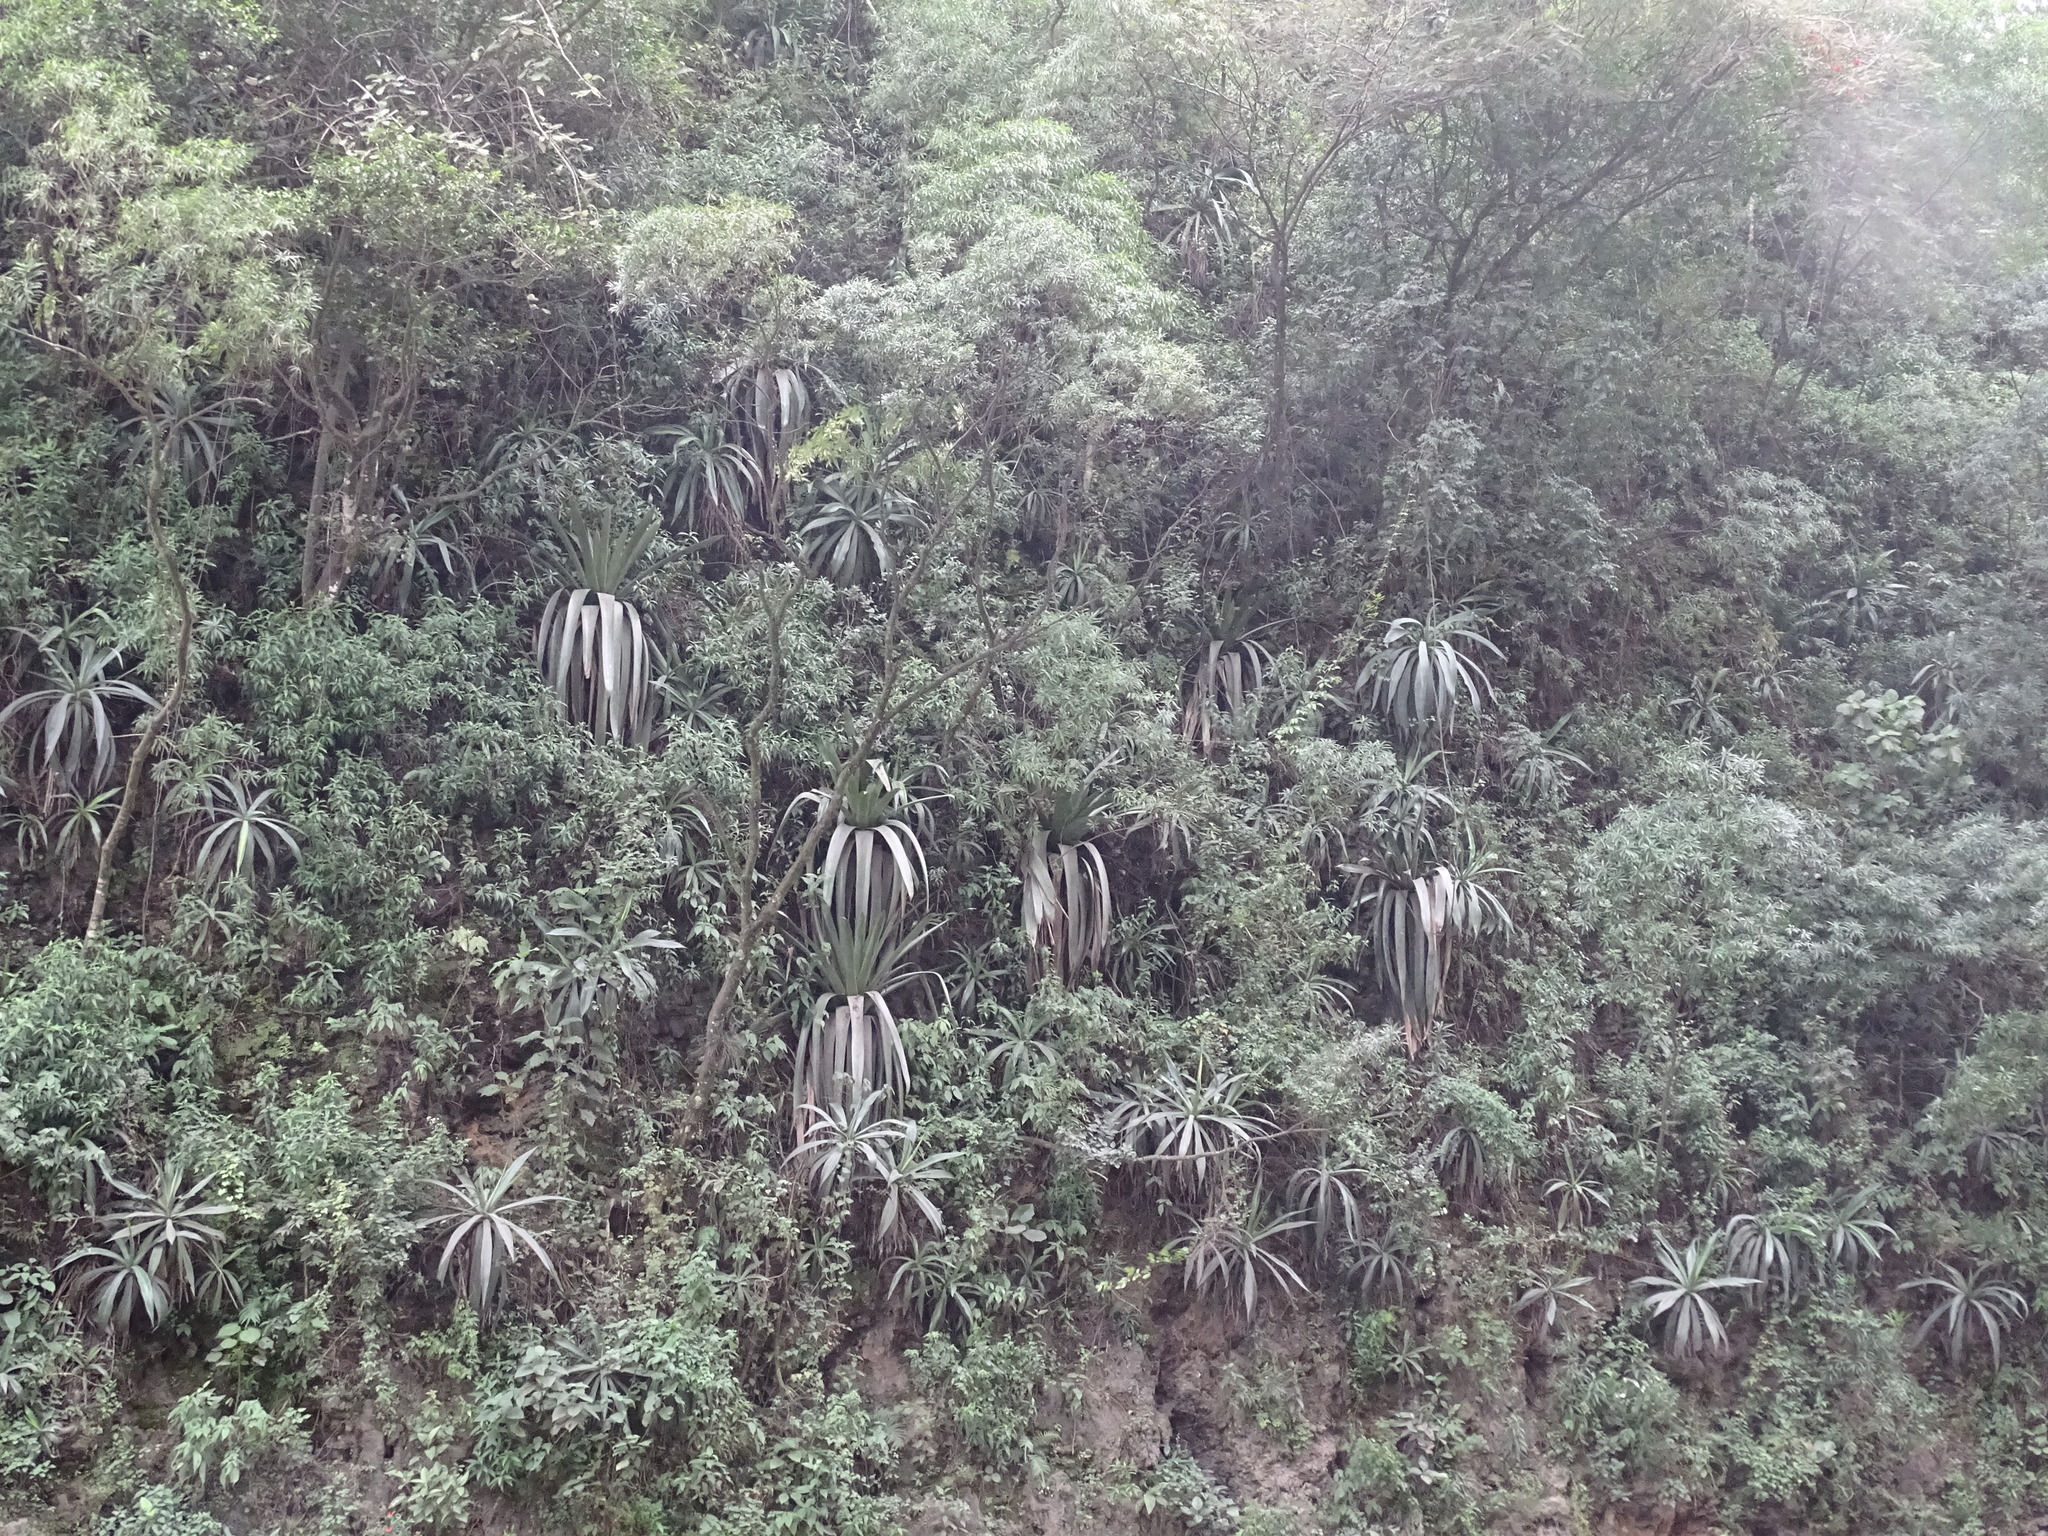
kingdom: Plantae
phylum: Tracheophyta
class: Liliopsida
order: Poales
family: Bromeliaceae
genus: Pseudalcantarea
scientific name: Pseudalcantarea grandis
